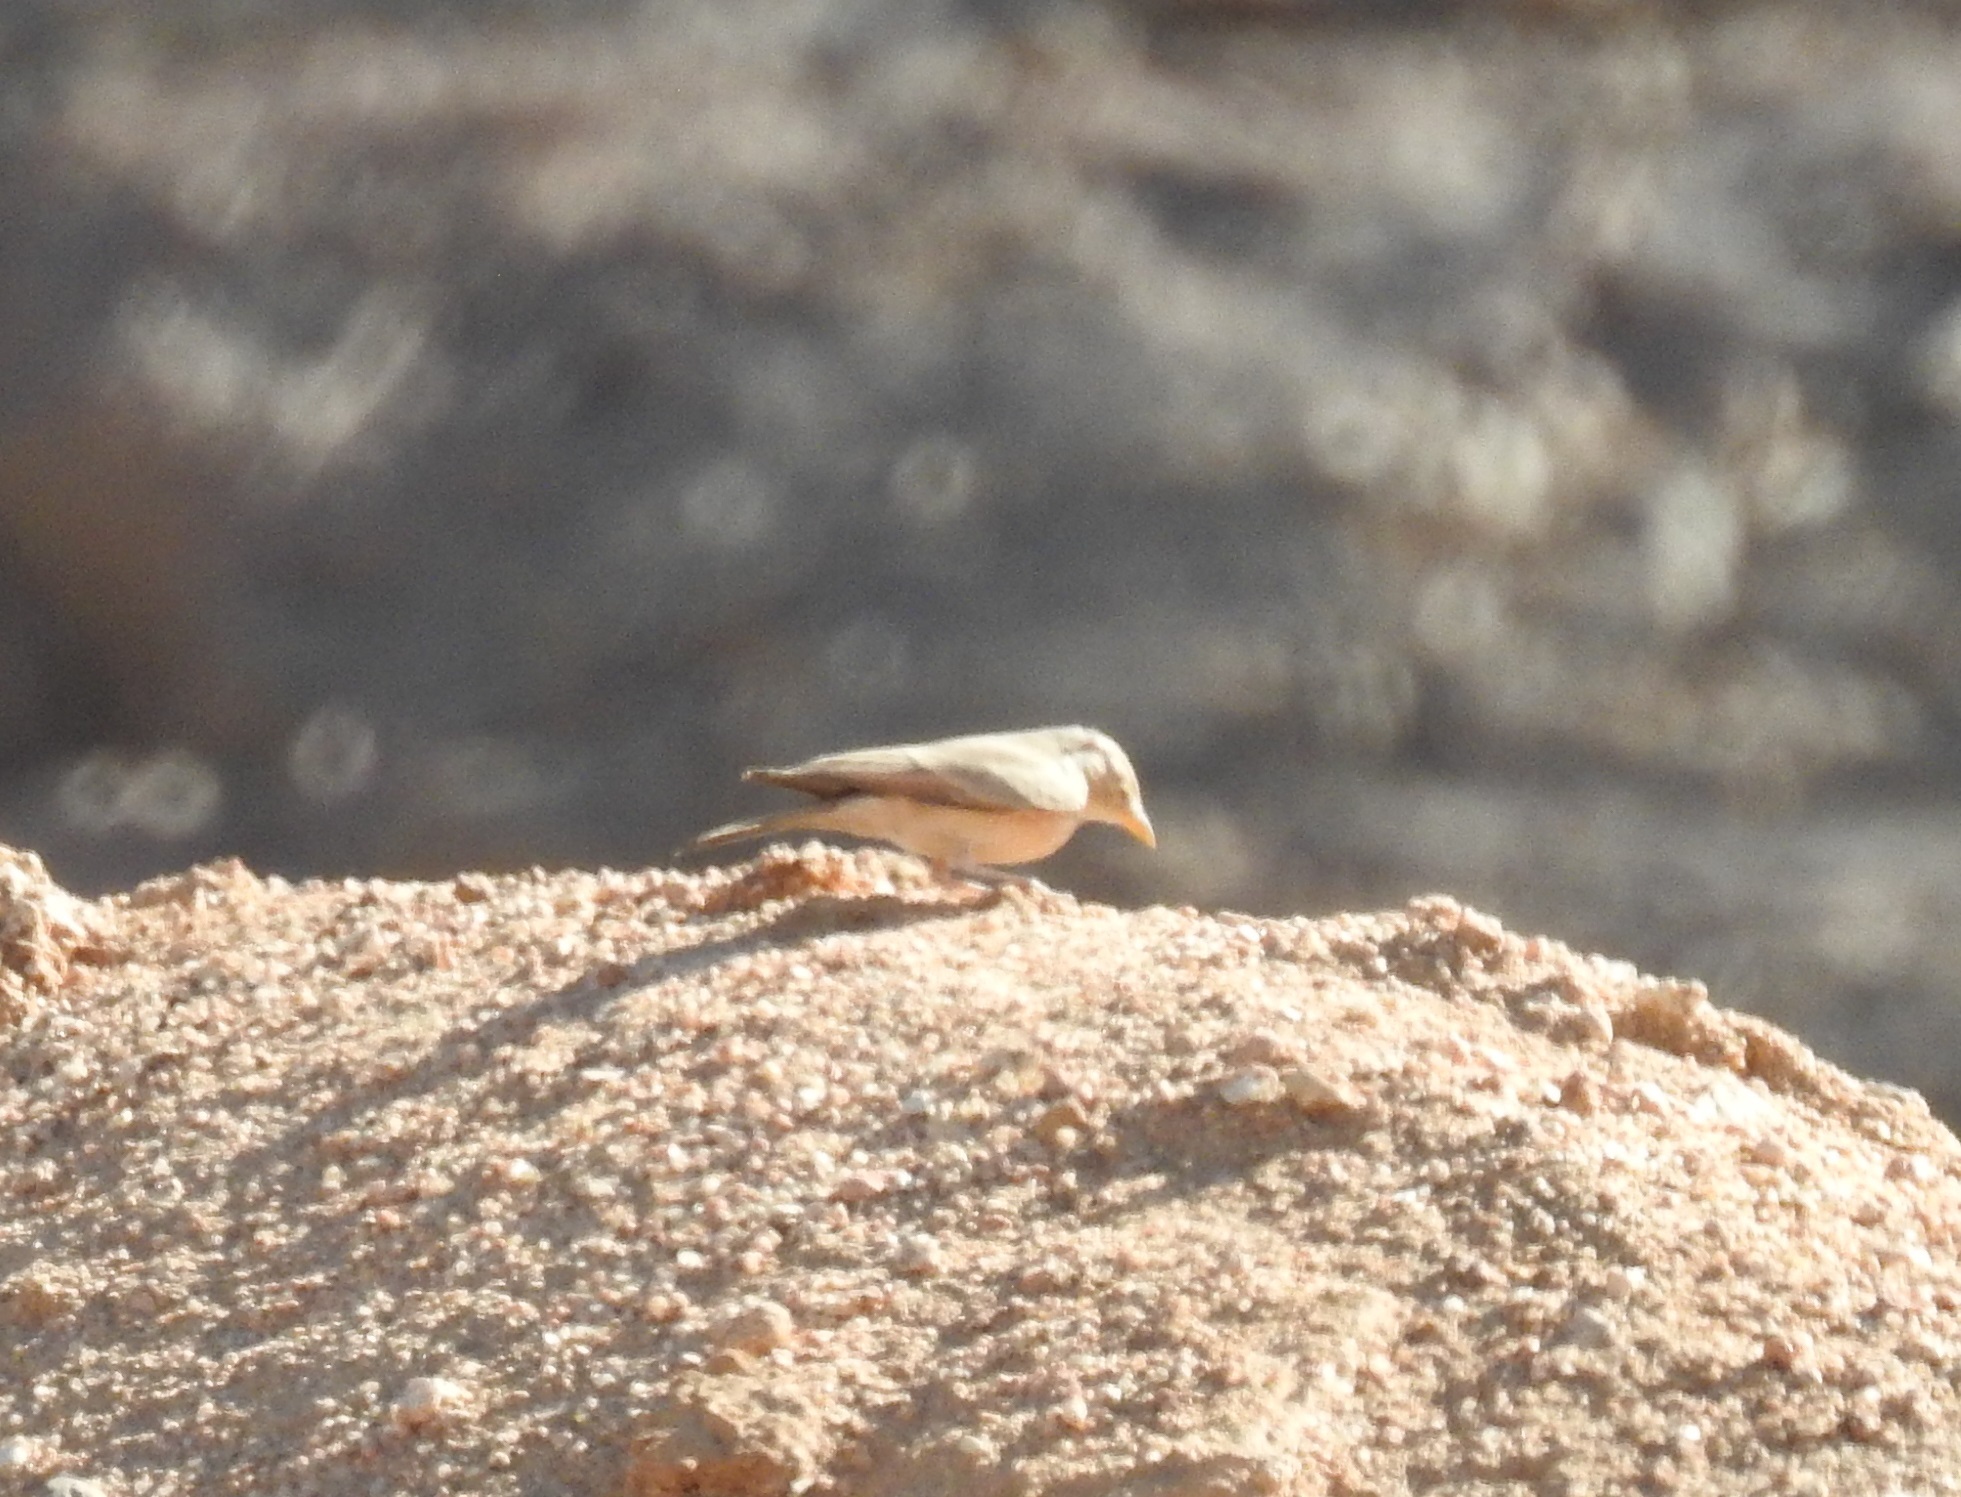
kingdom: Animalia
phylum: Chordata
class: Aves
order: Passeriformes
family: Alaudidae
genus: Ammomanes
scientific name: Ammomanes deserti
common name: Desert lark
